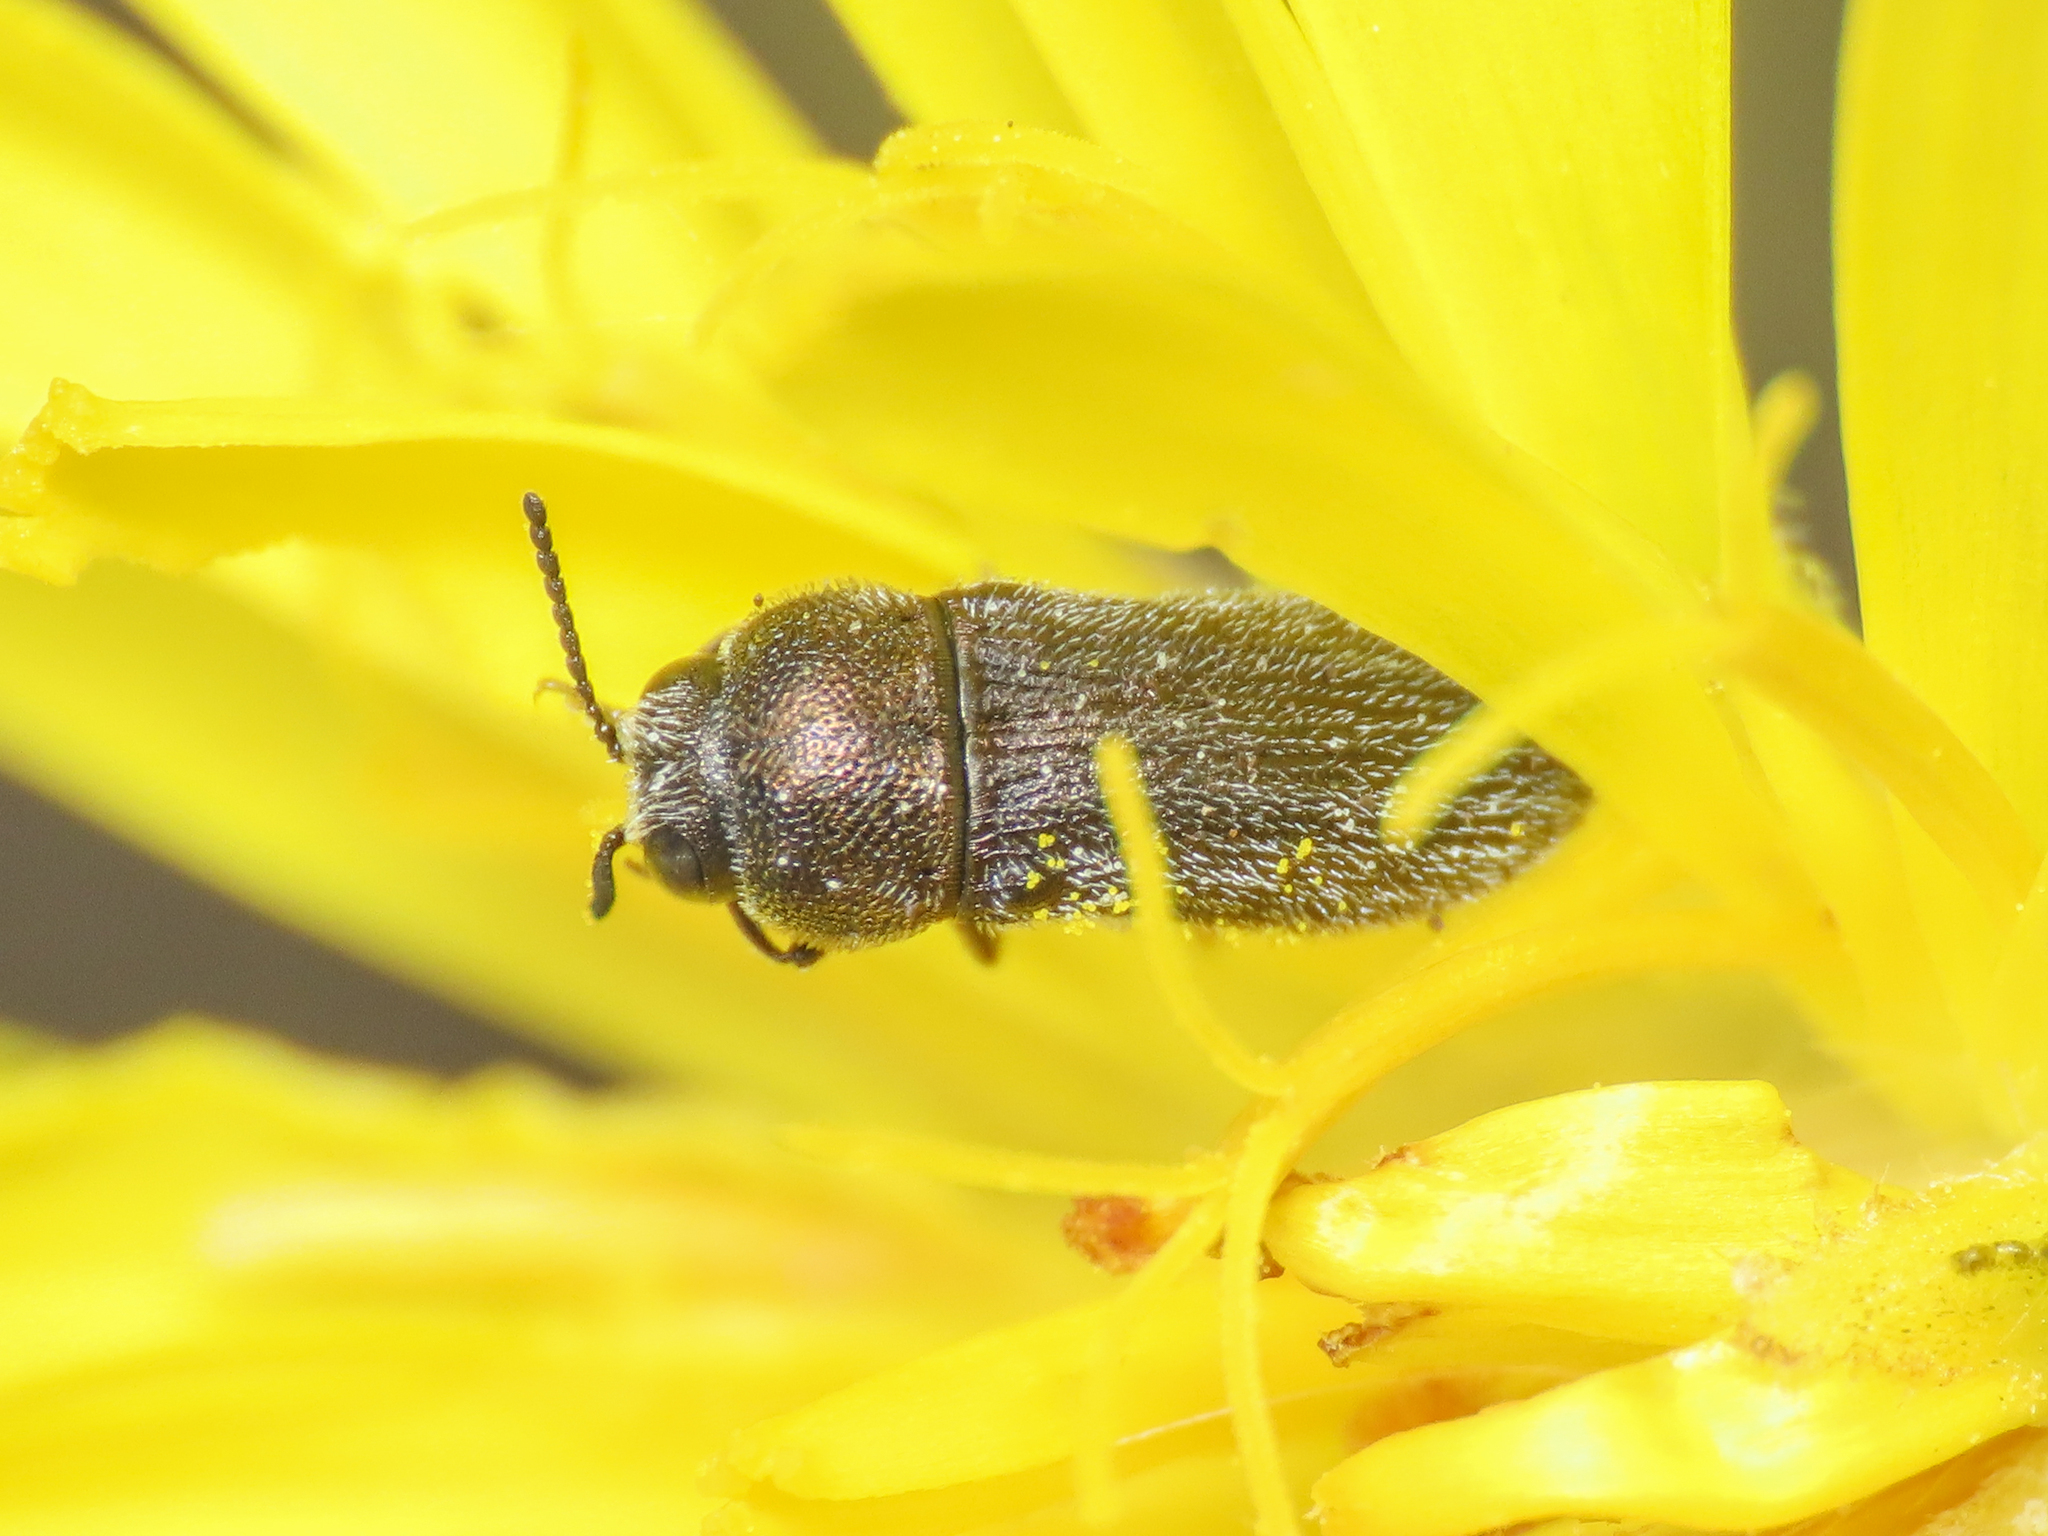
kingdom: Animalia
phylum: Arthropoda
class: Insecta
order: Coleoptera
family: Buprestidae
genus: Acmaeoderella
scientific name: Acmaeoderella circassica
